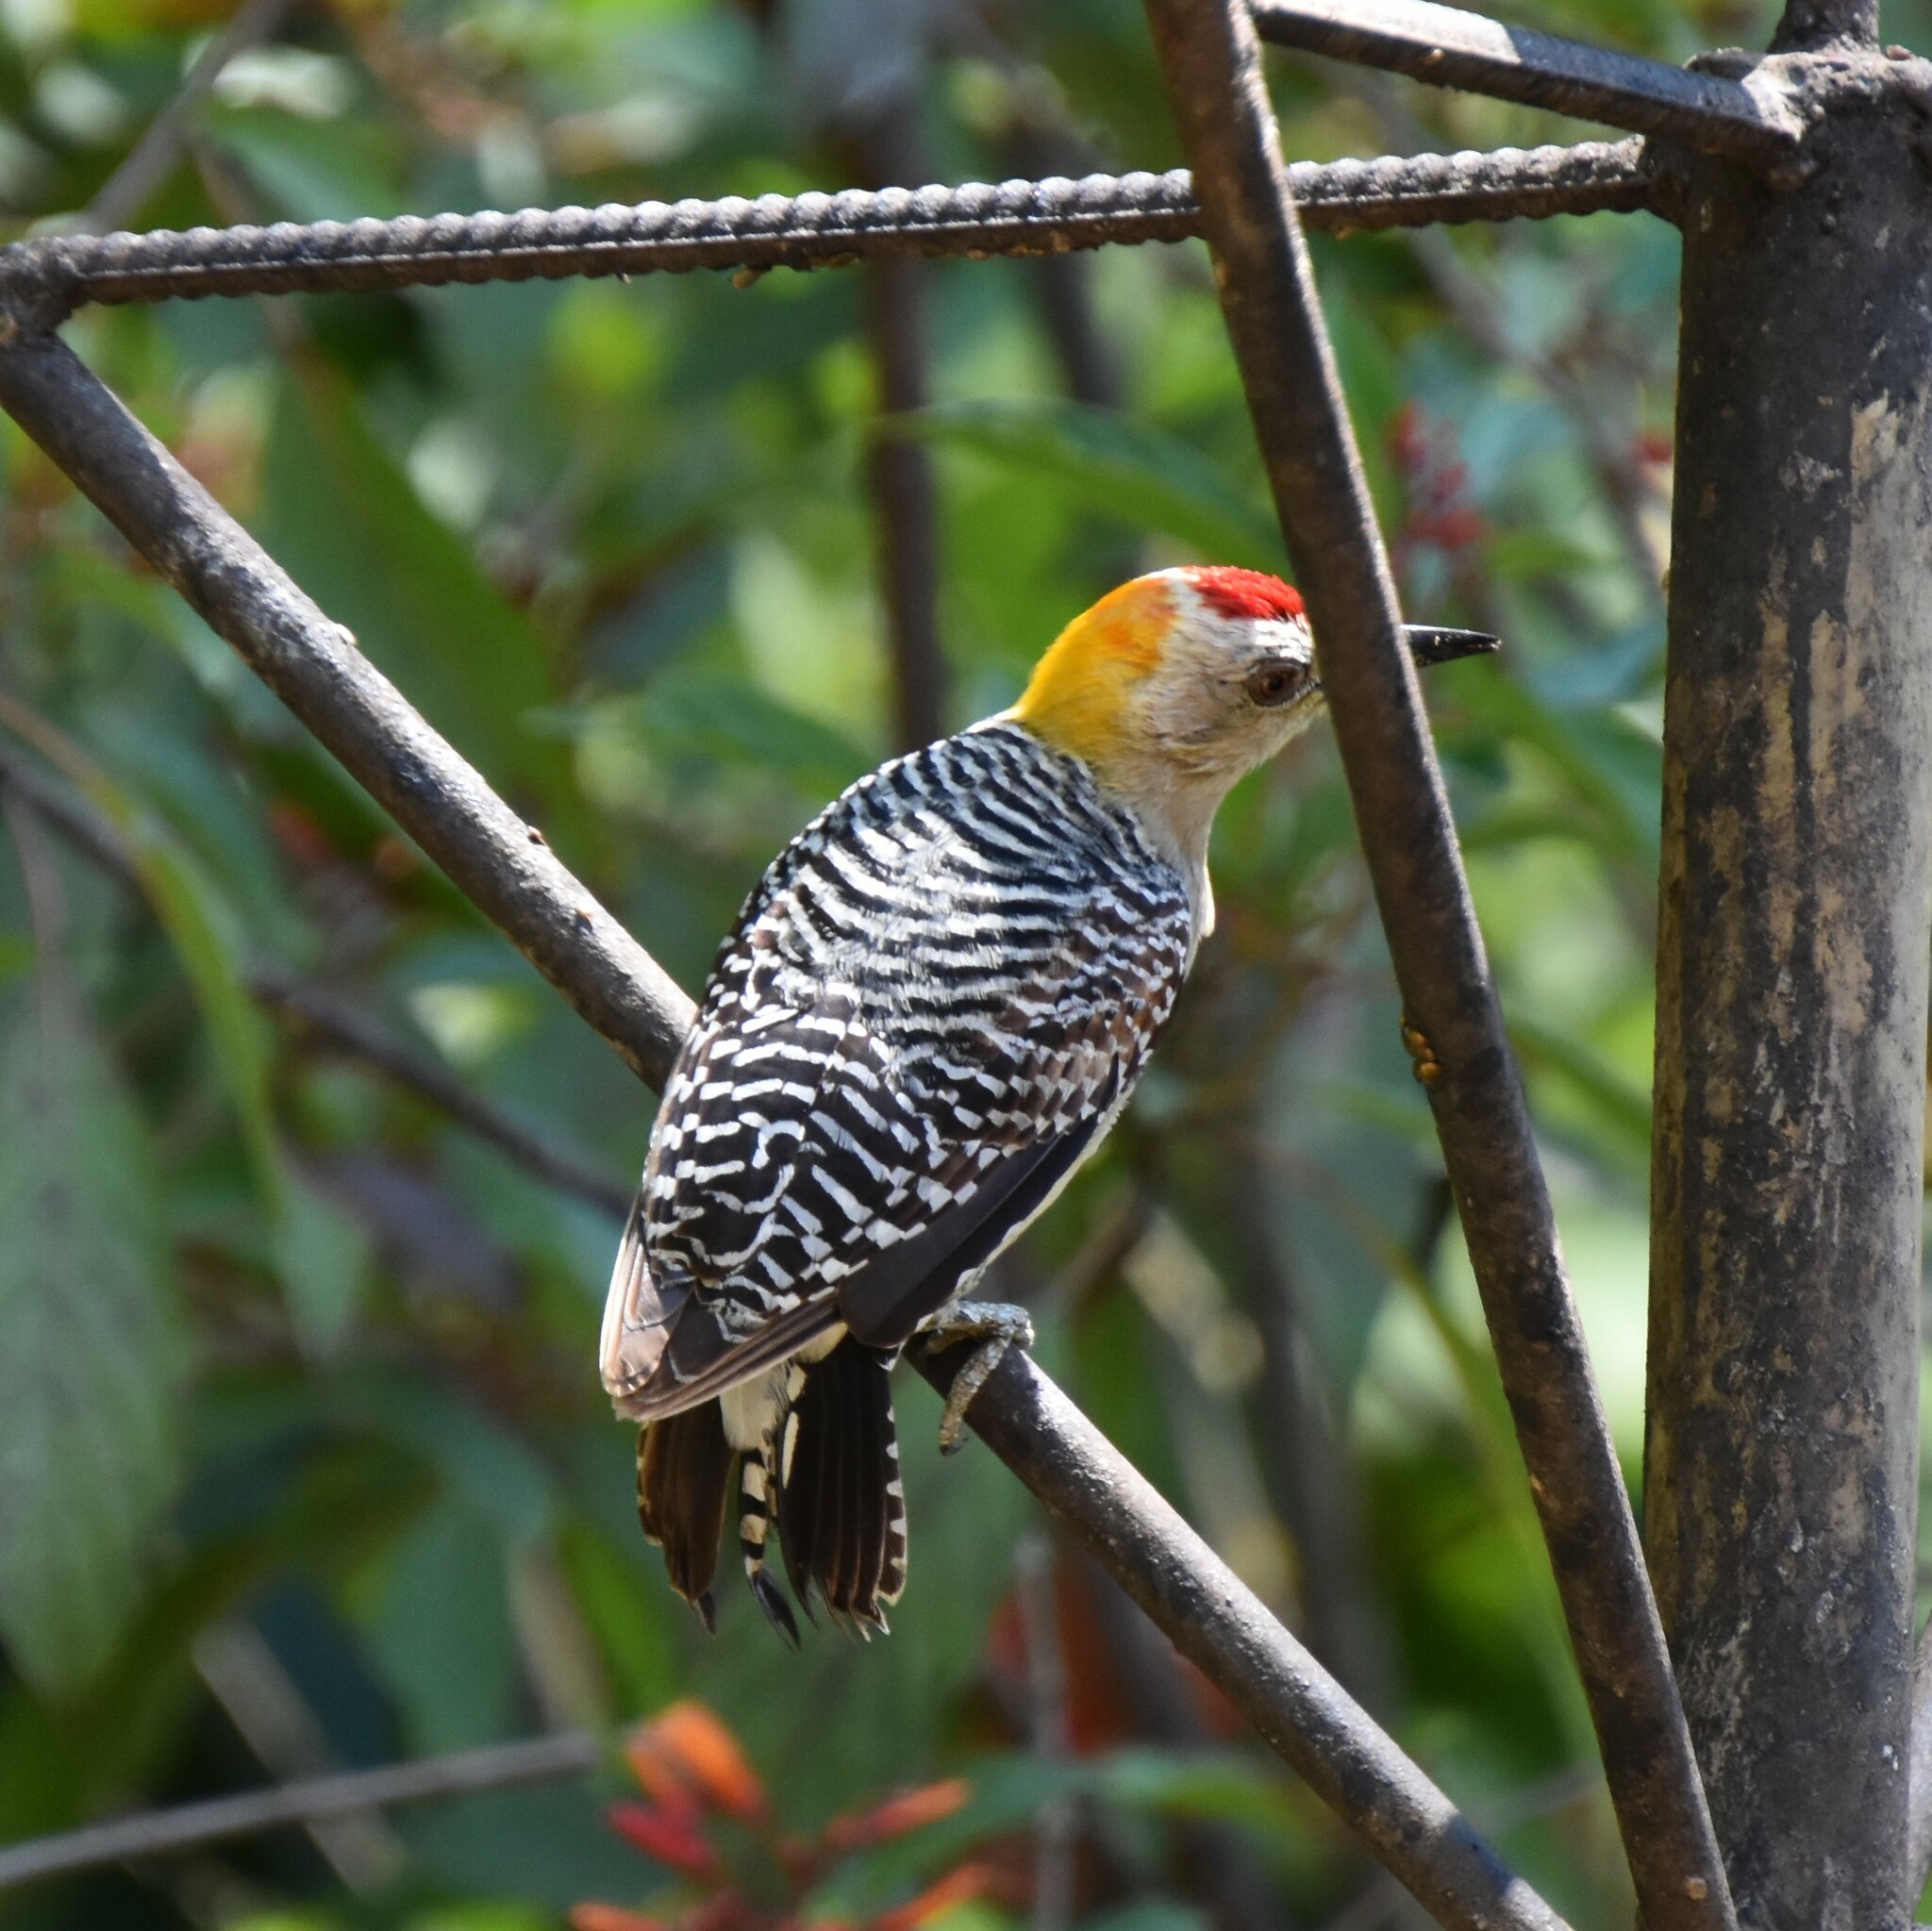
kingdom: Animalia
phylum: Chordata
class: Aves
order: Piciformes
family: Picidae
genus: Melanerpes
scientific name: Melanerpes hoffmannii
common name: Hoffmann's woodpecker
